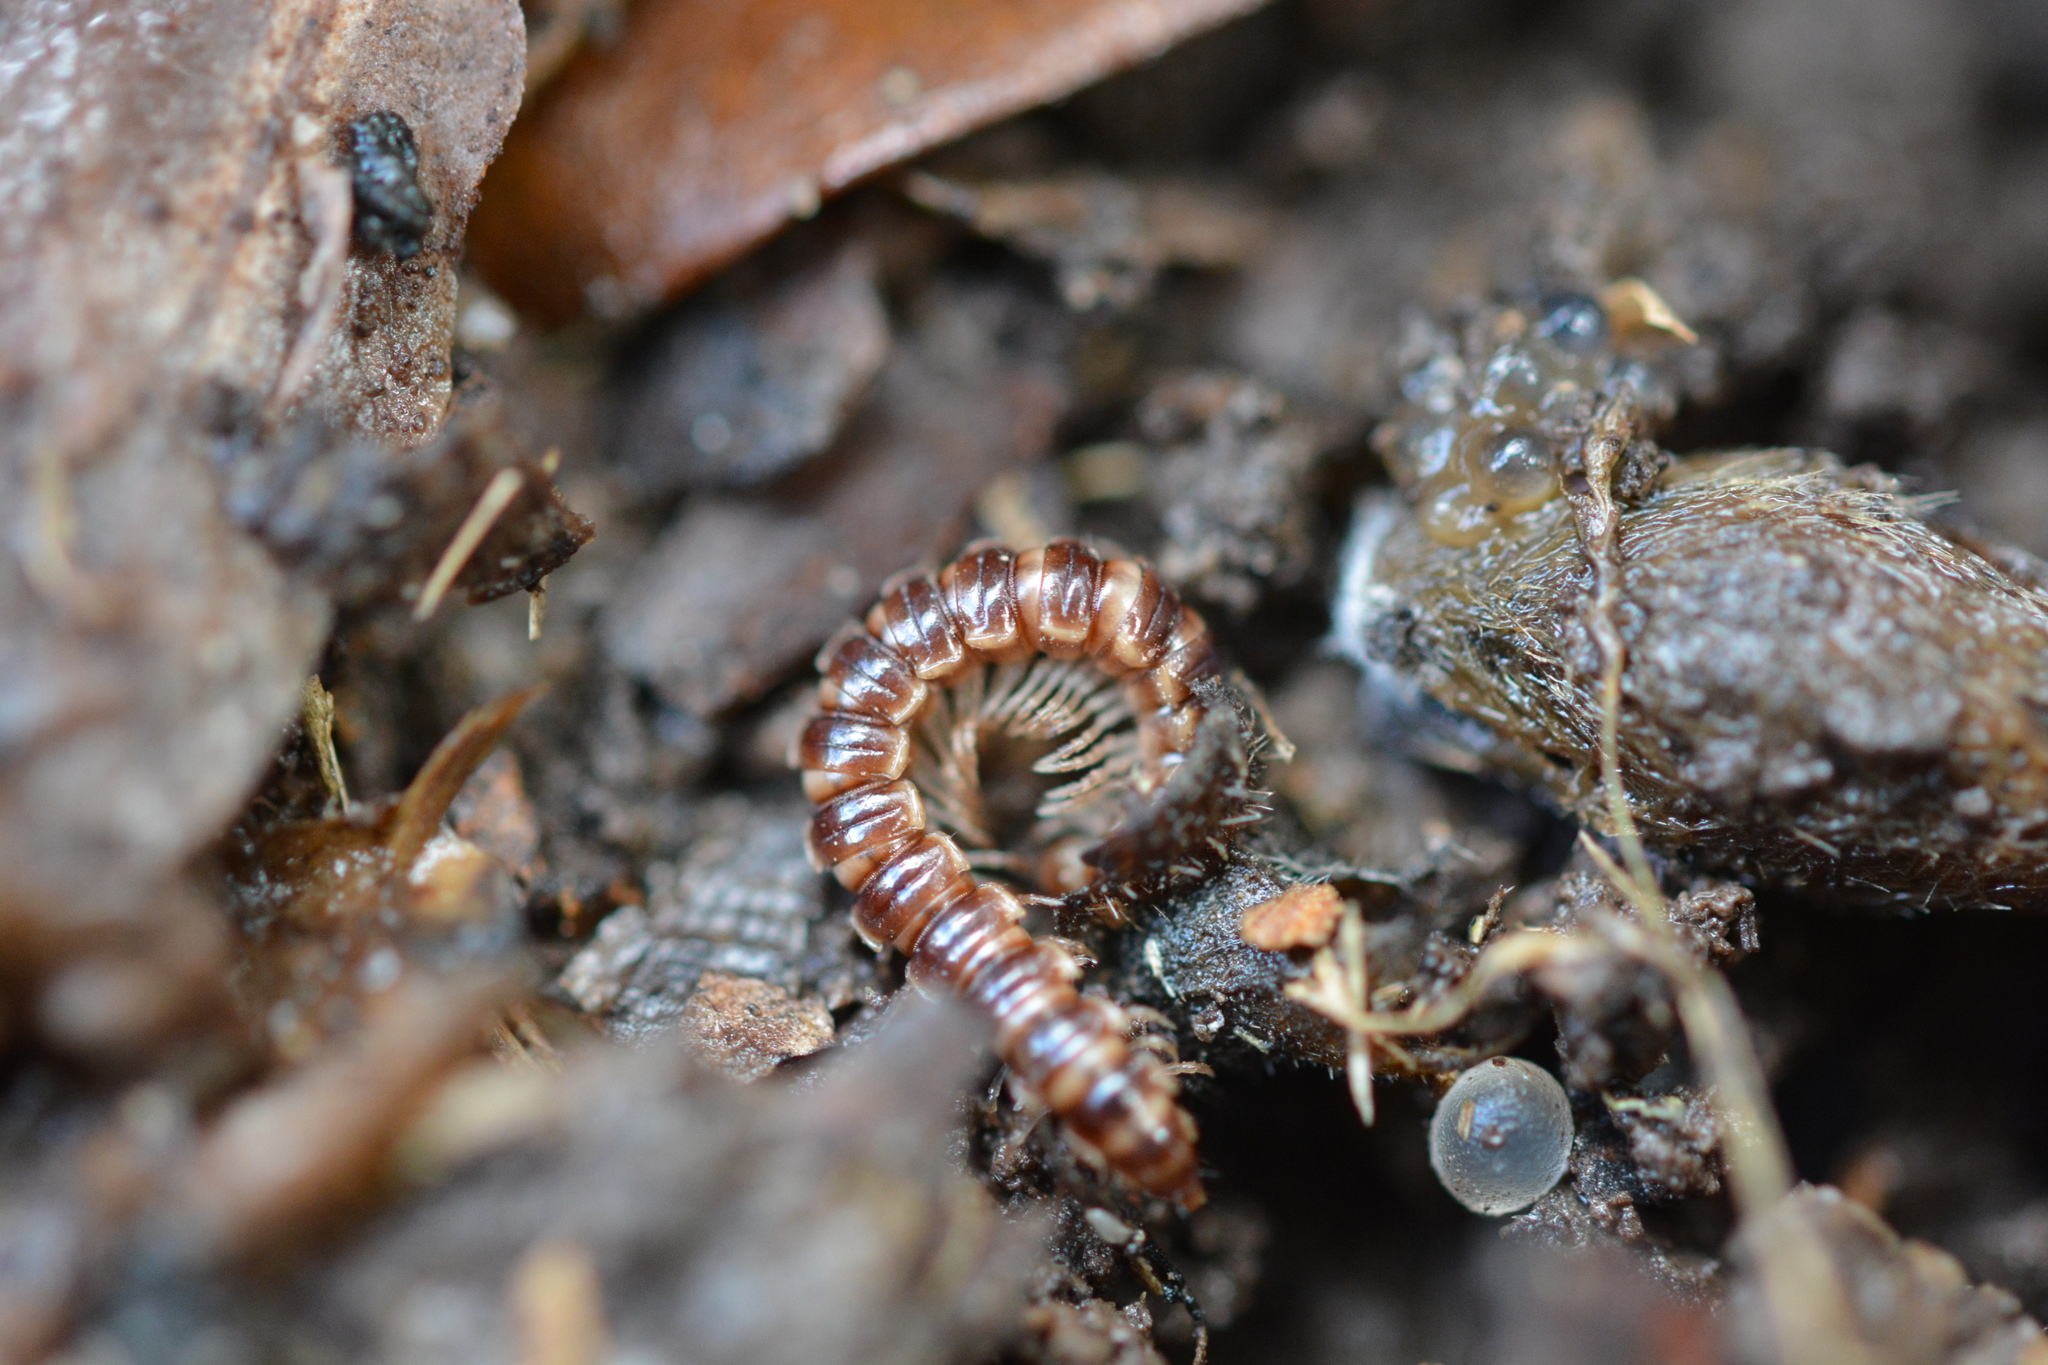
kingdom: Animalia
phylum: Arthropoda
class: Diplopoda
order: Polydesmida
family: Paradoxosomatidae
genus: Oxidus
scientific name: Oxidus gracilis
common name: Greenhouse millipede
